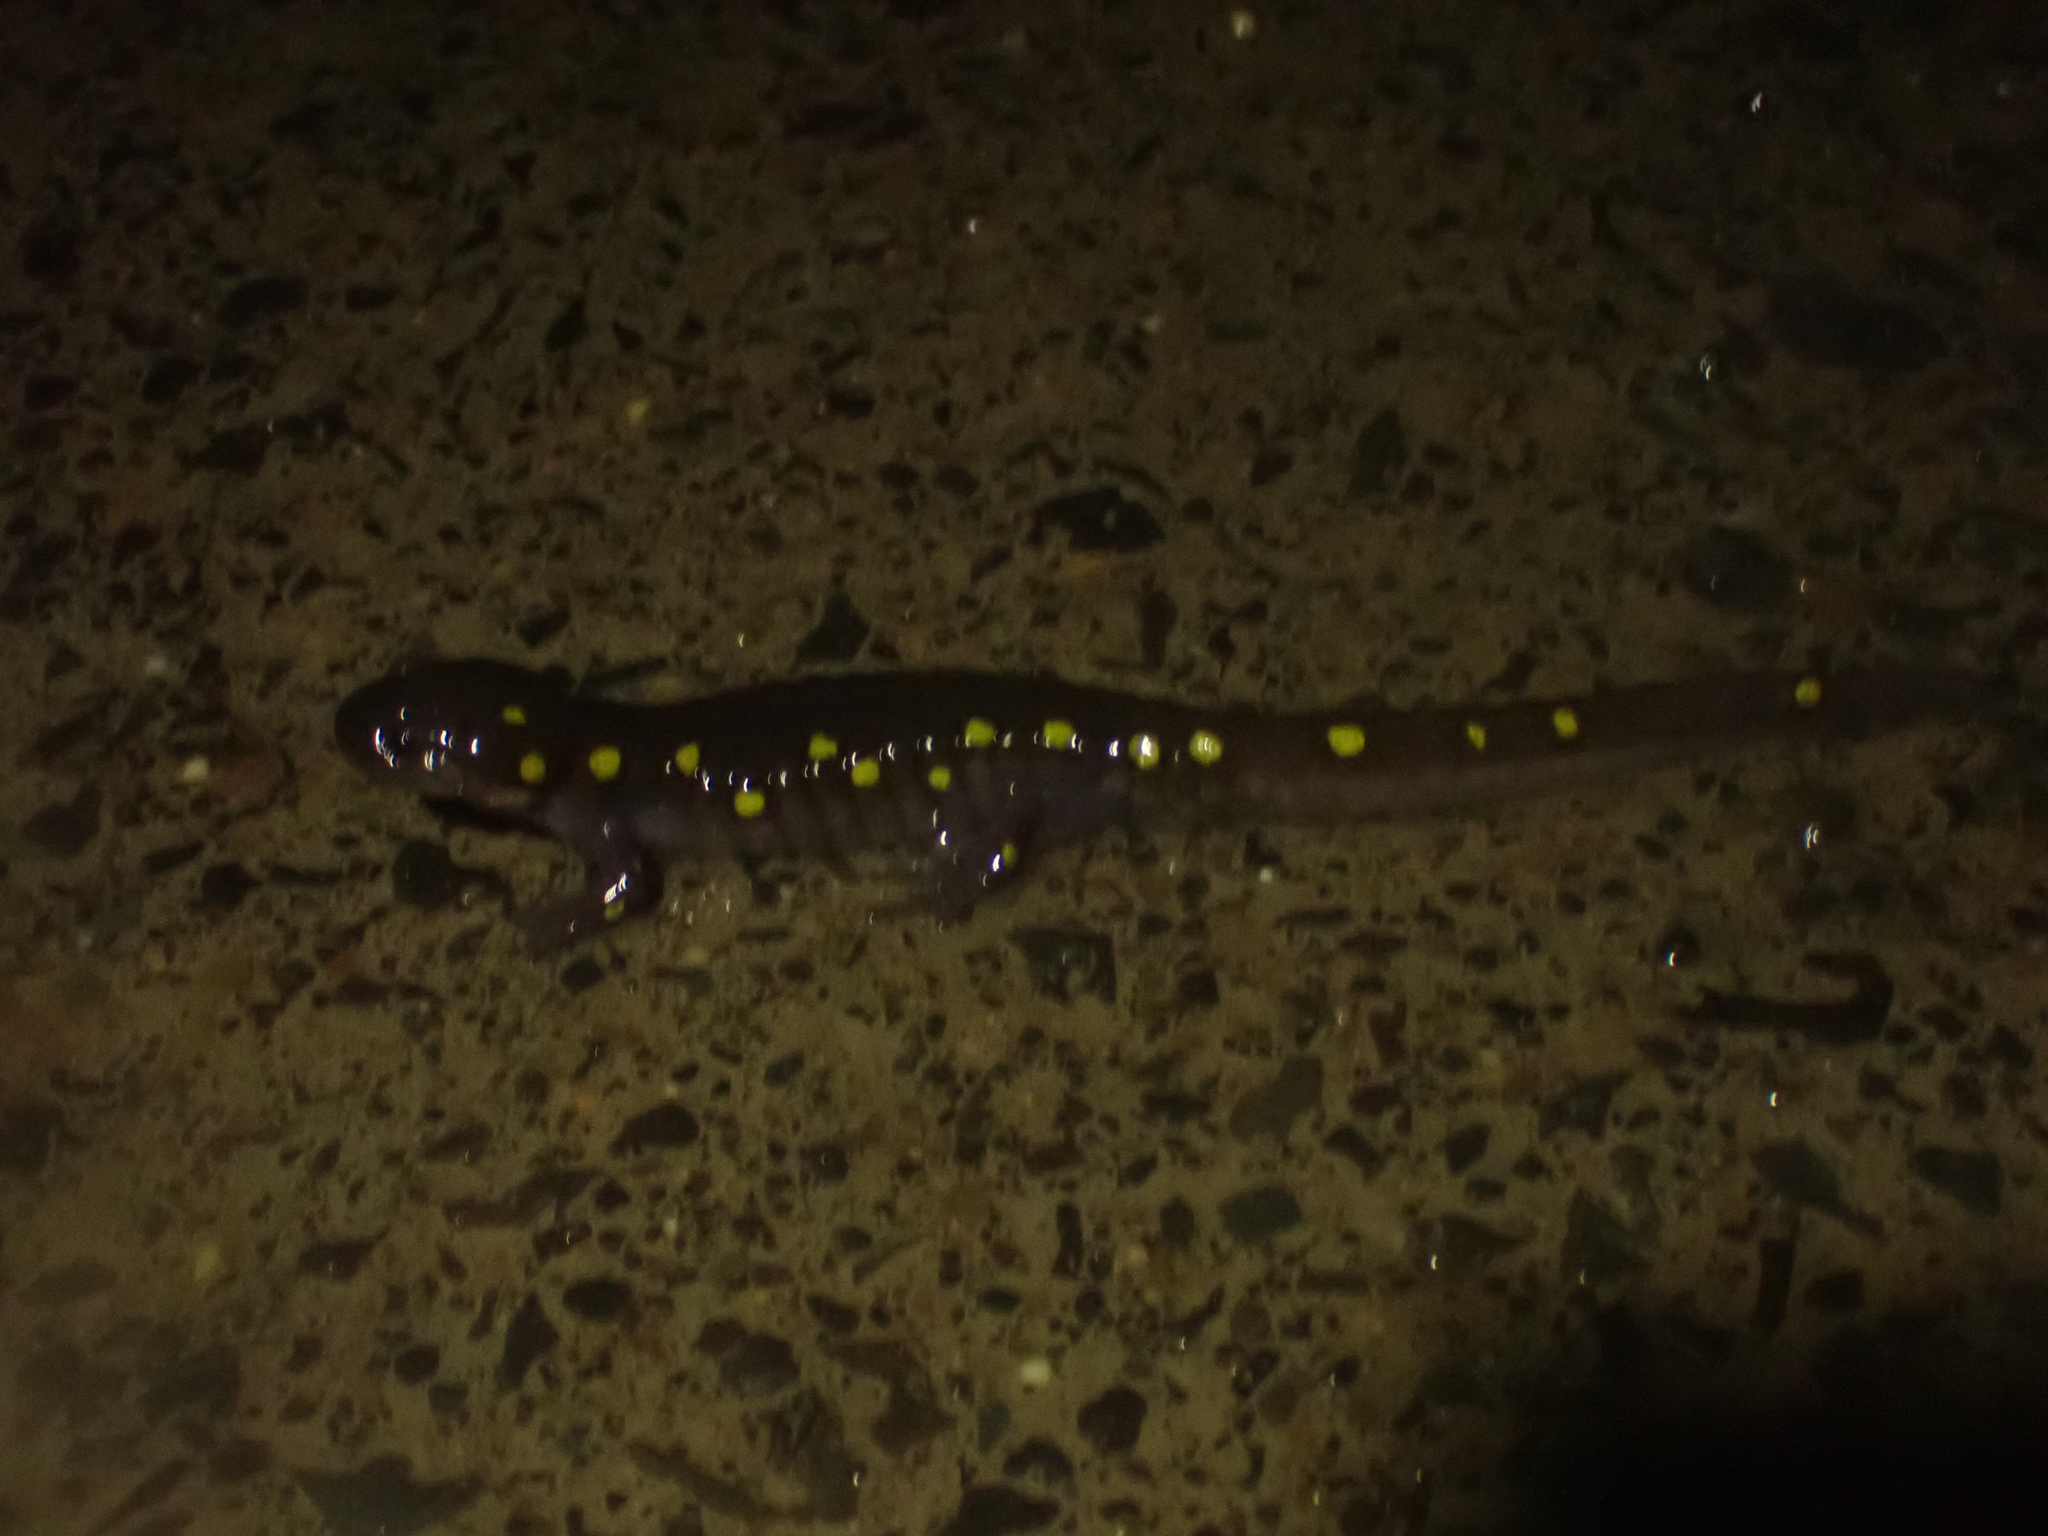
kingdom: Animalia
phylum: Chordata
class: Amphibia
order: Caudata
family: Ambystomatidae
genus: Ambystoma
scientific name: Ambystoma maculatum
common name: Spotted salamander
